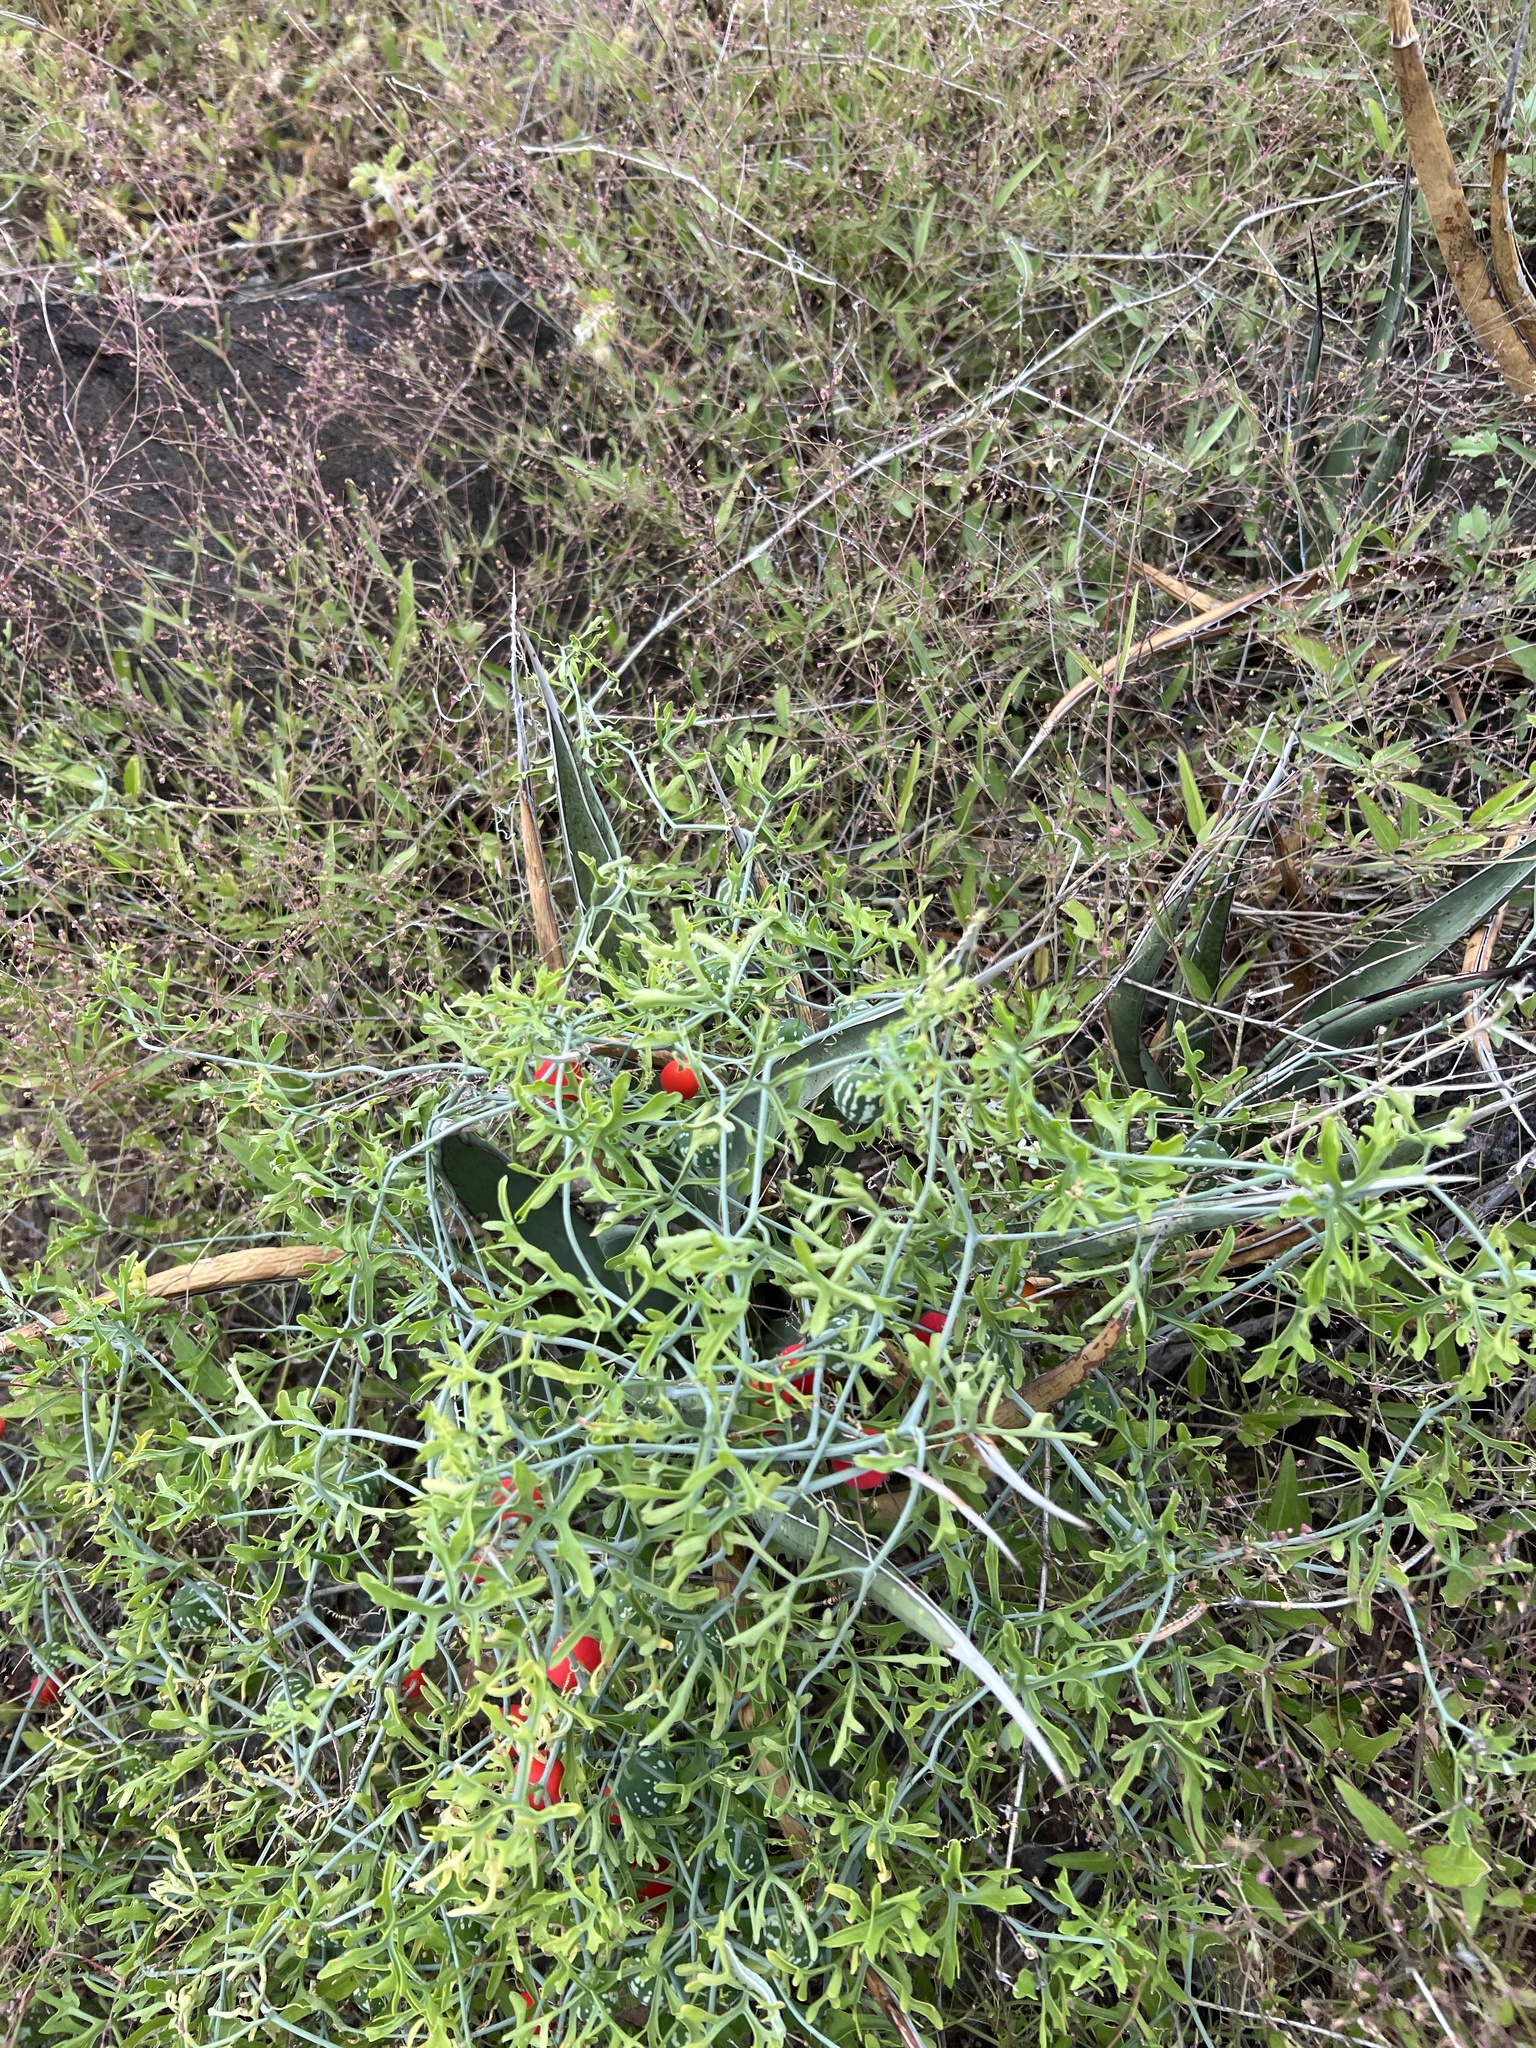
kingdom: Plantae
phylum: Tracheophyta
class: Magnoliopsida
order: Cucurbitales
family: Cucurbitaceae
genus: Ibervillea
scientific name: Ibervillea tenuisecta
